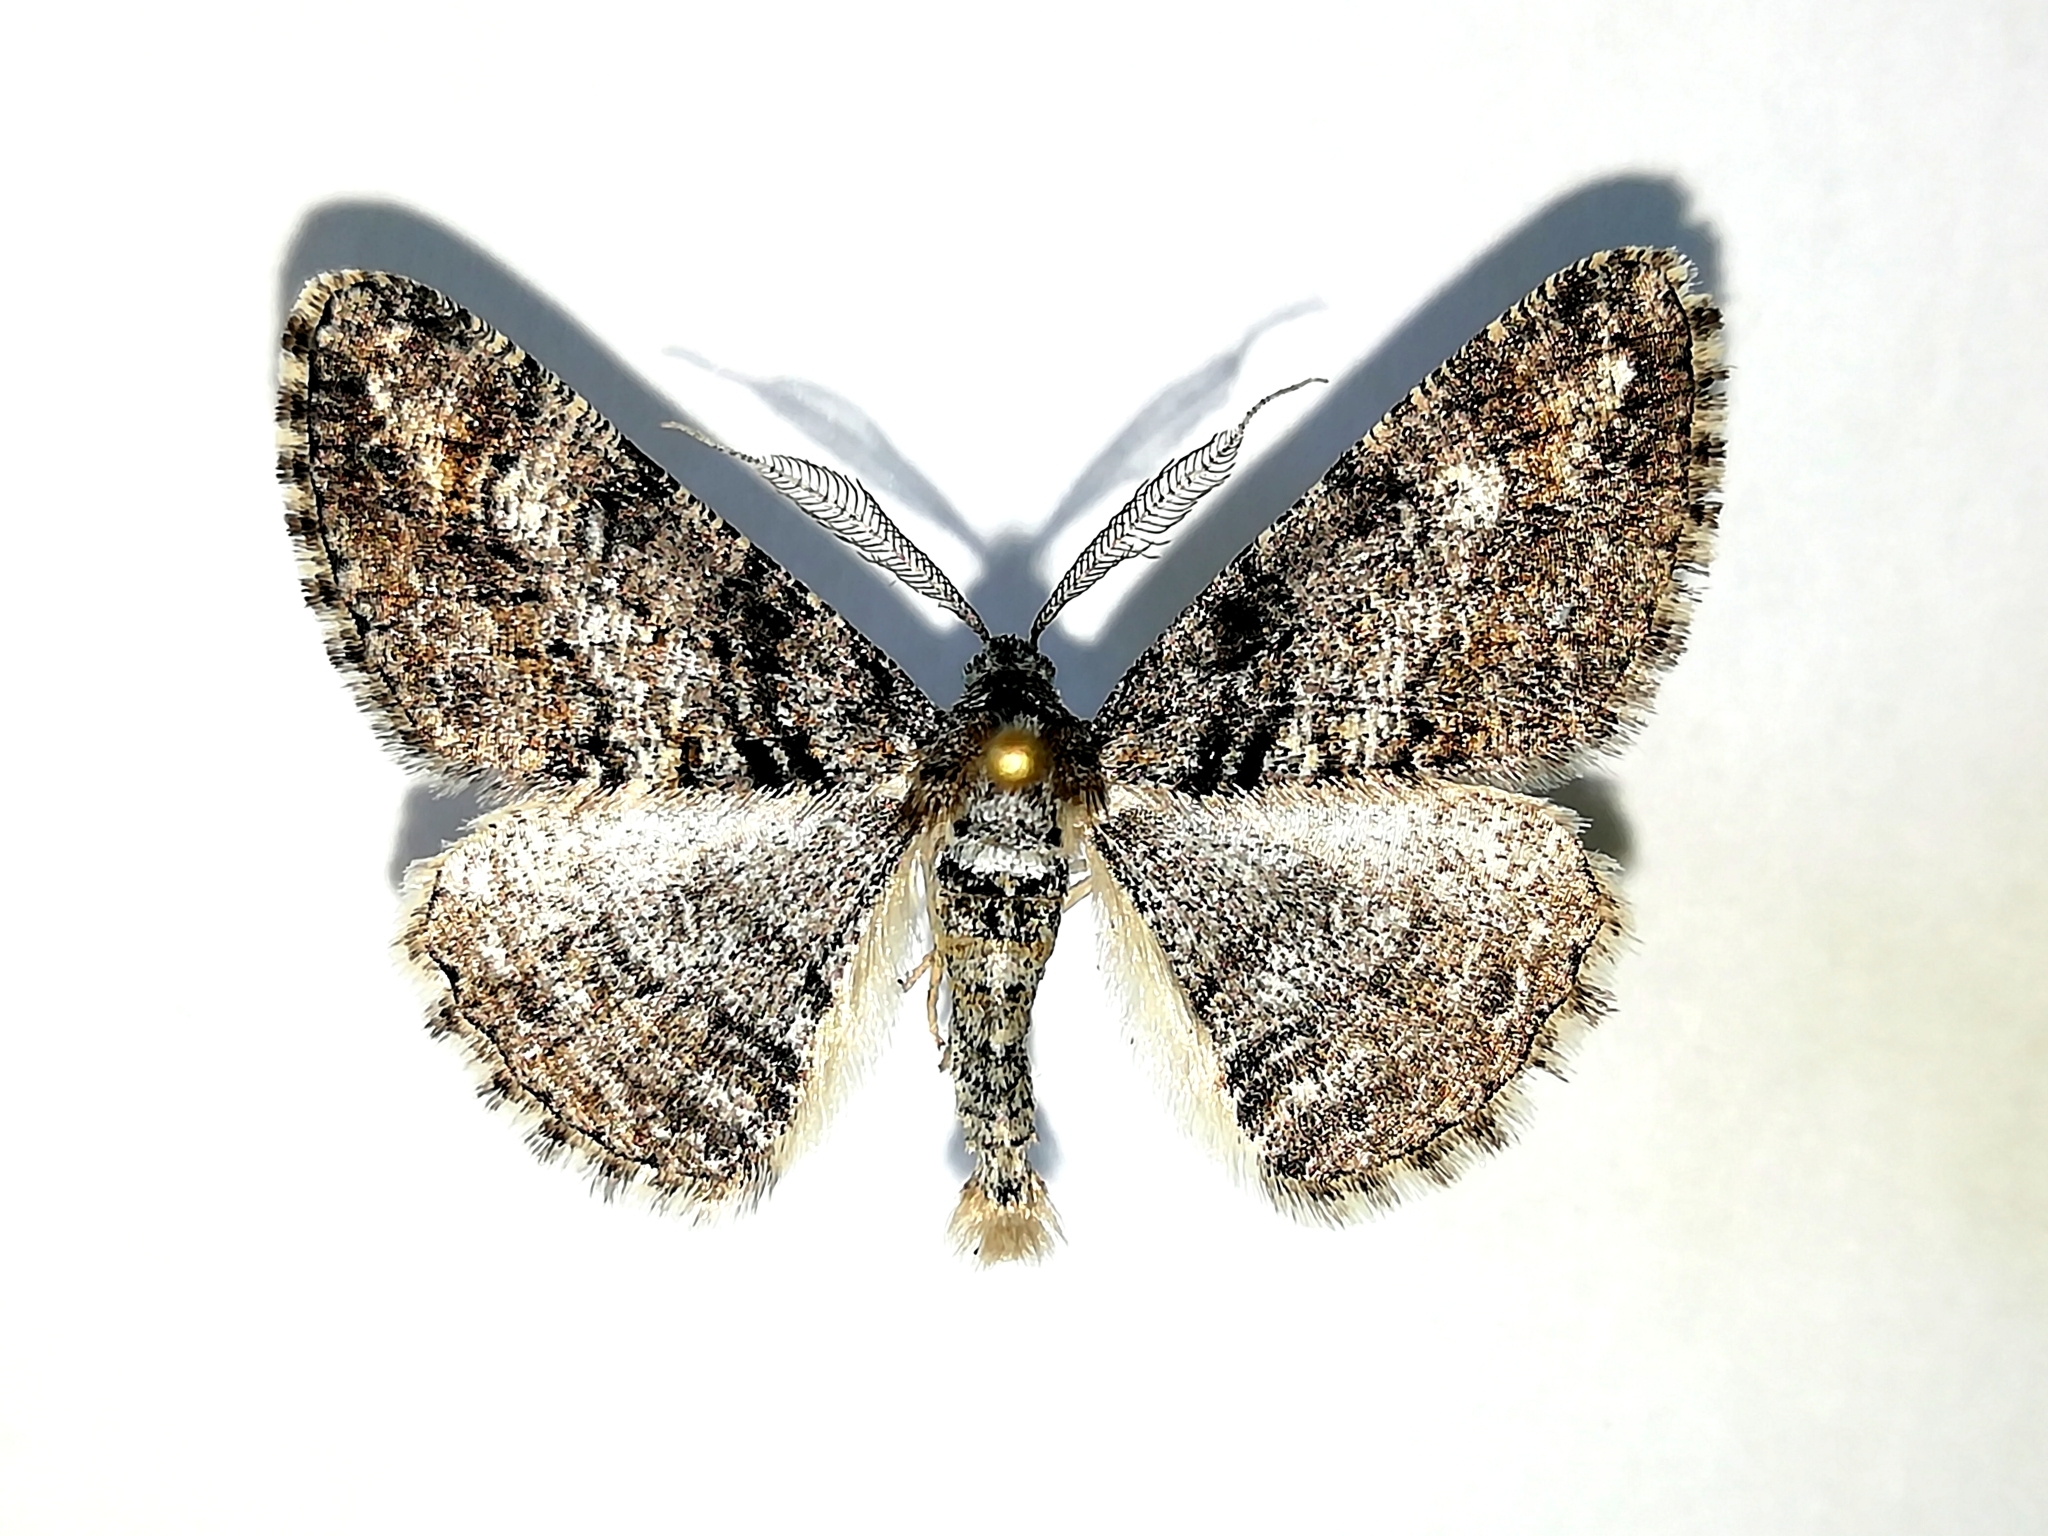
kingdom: Animalia
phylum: Arthropoda
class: Insecta
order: Lepidoptera
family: Geometridae
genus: Cleora
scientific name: Cleora cinctaria
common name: Ringed carpet
